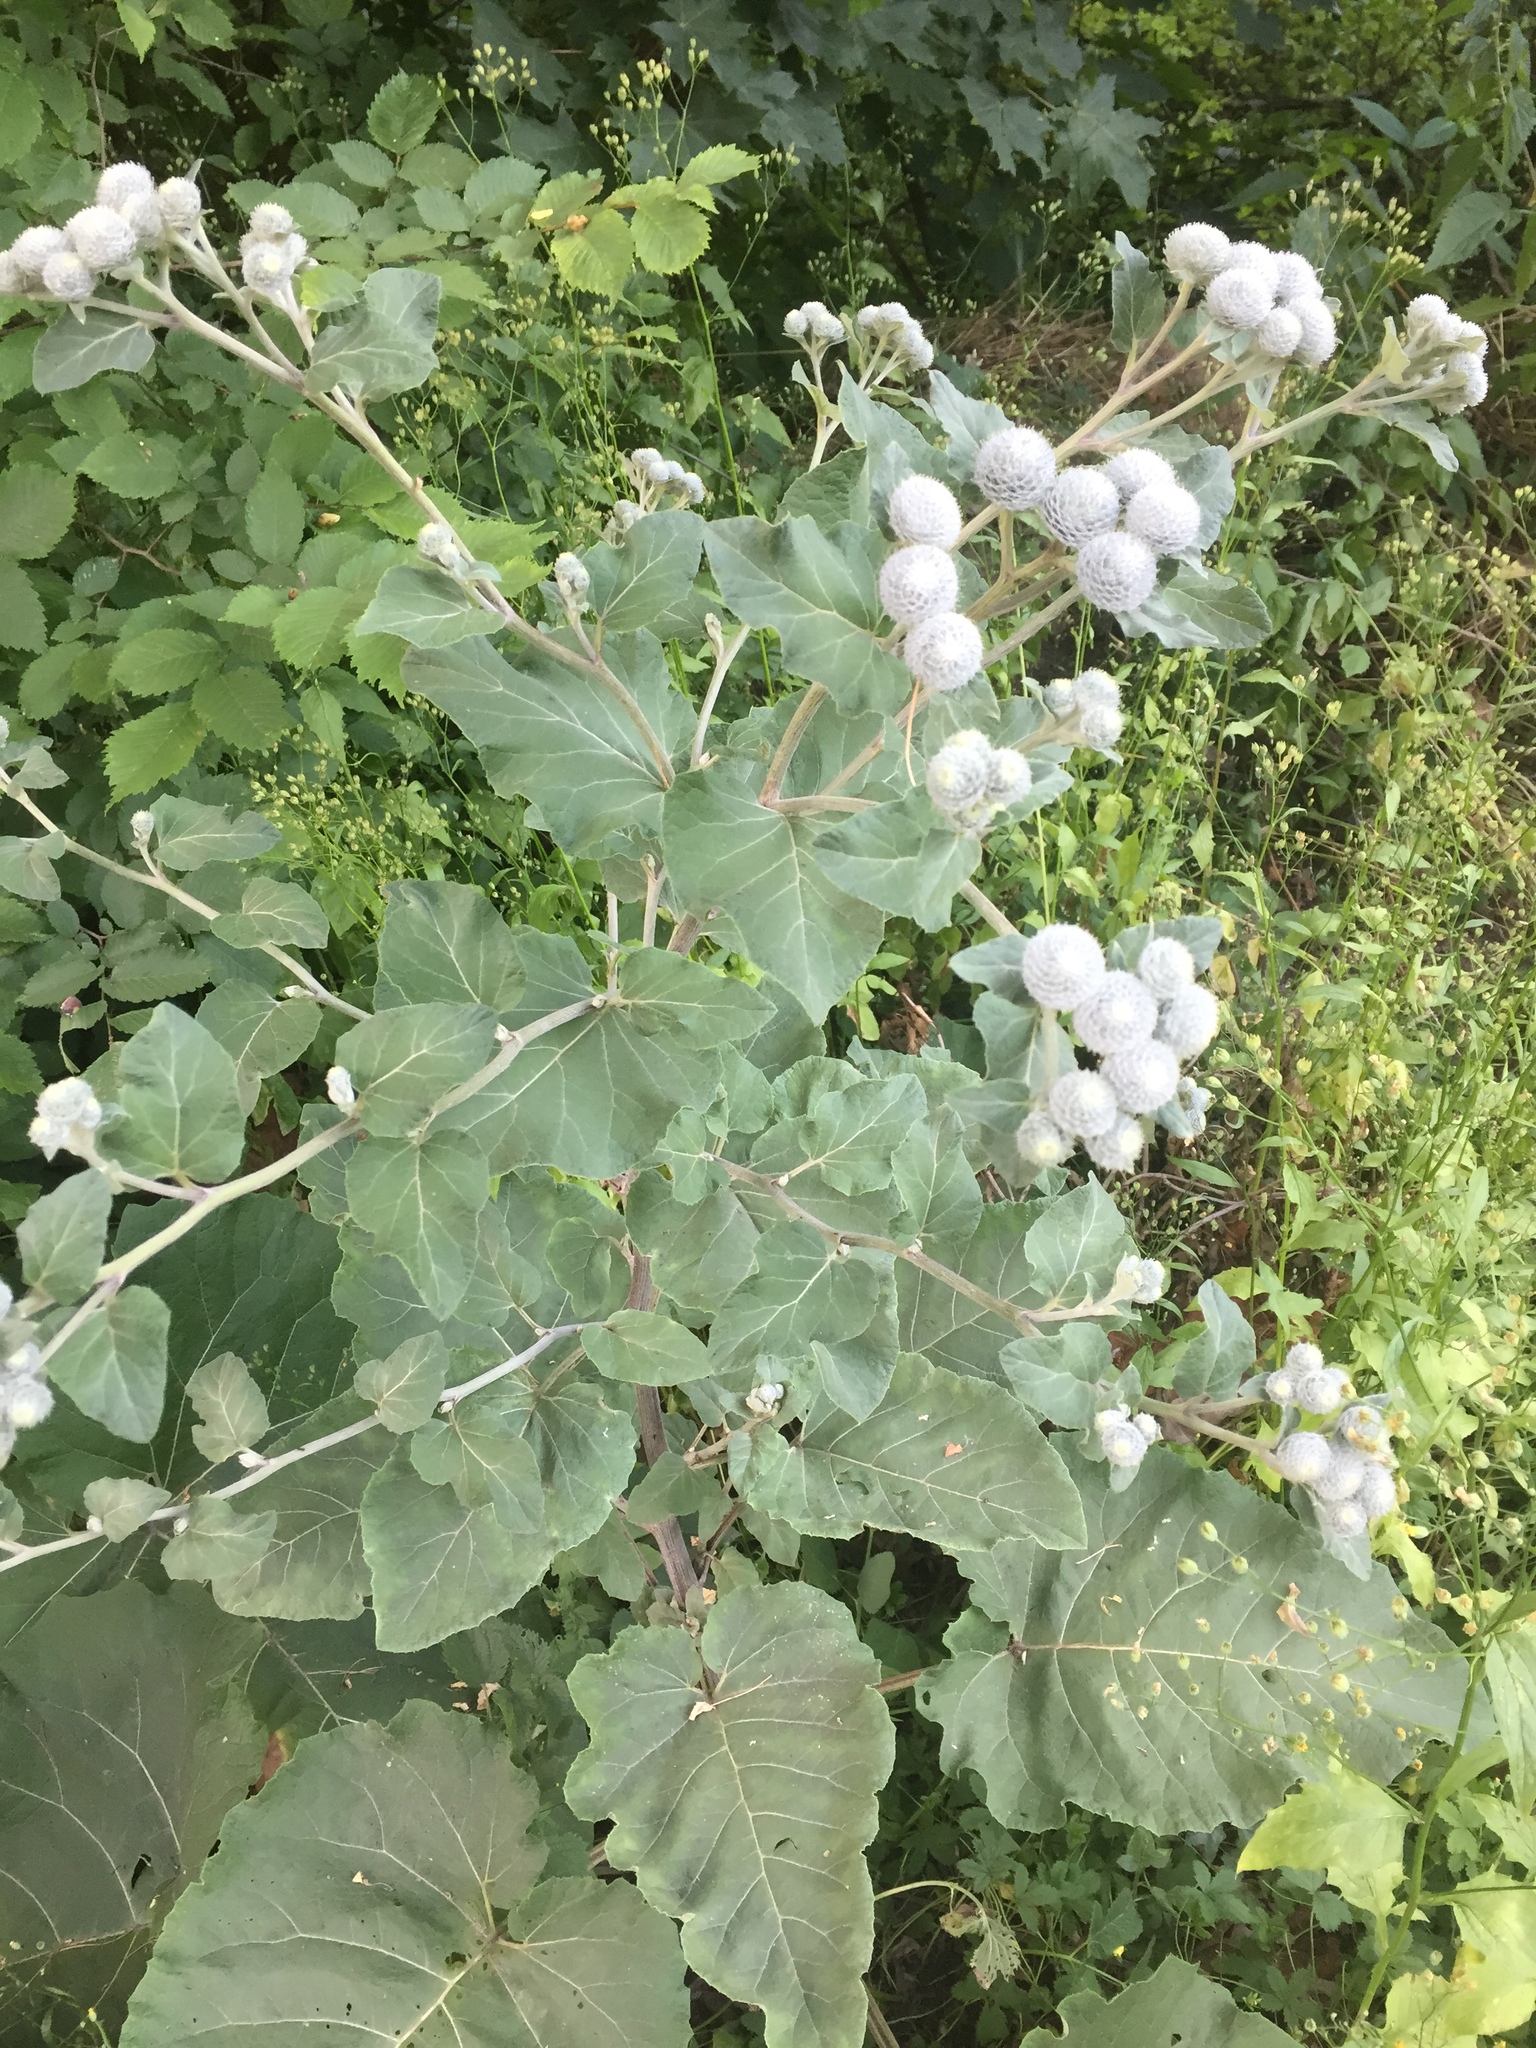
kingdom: Plantae
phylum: Tracheophyta
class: Magnoliopsida
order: Asterales
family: Asteraceae
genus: Arctium
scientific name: Arctium tomentosum
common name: Woolly burdock
